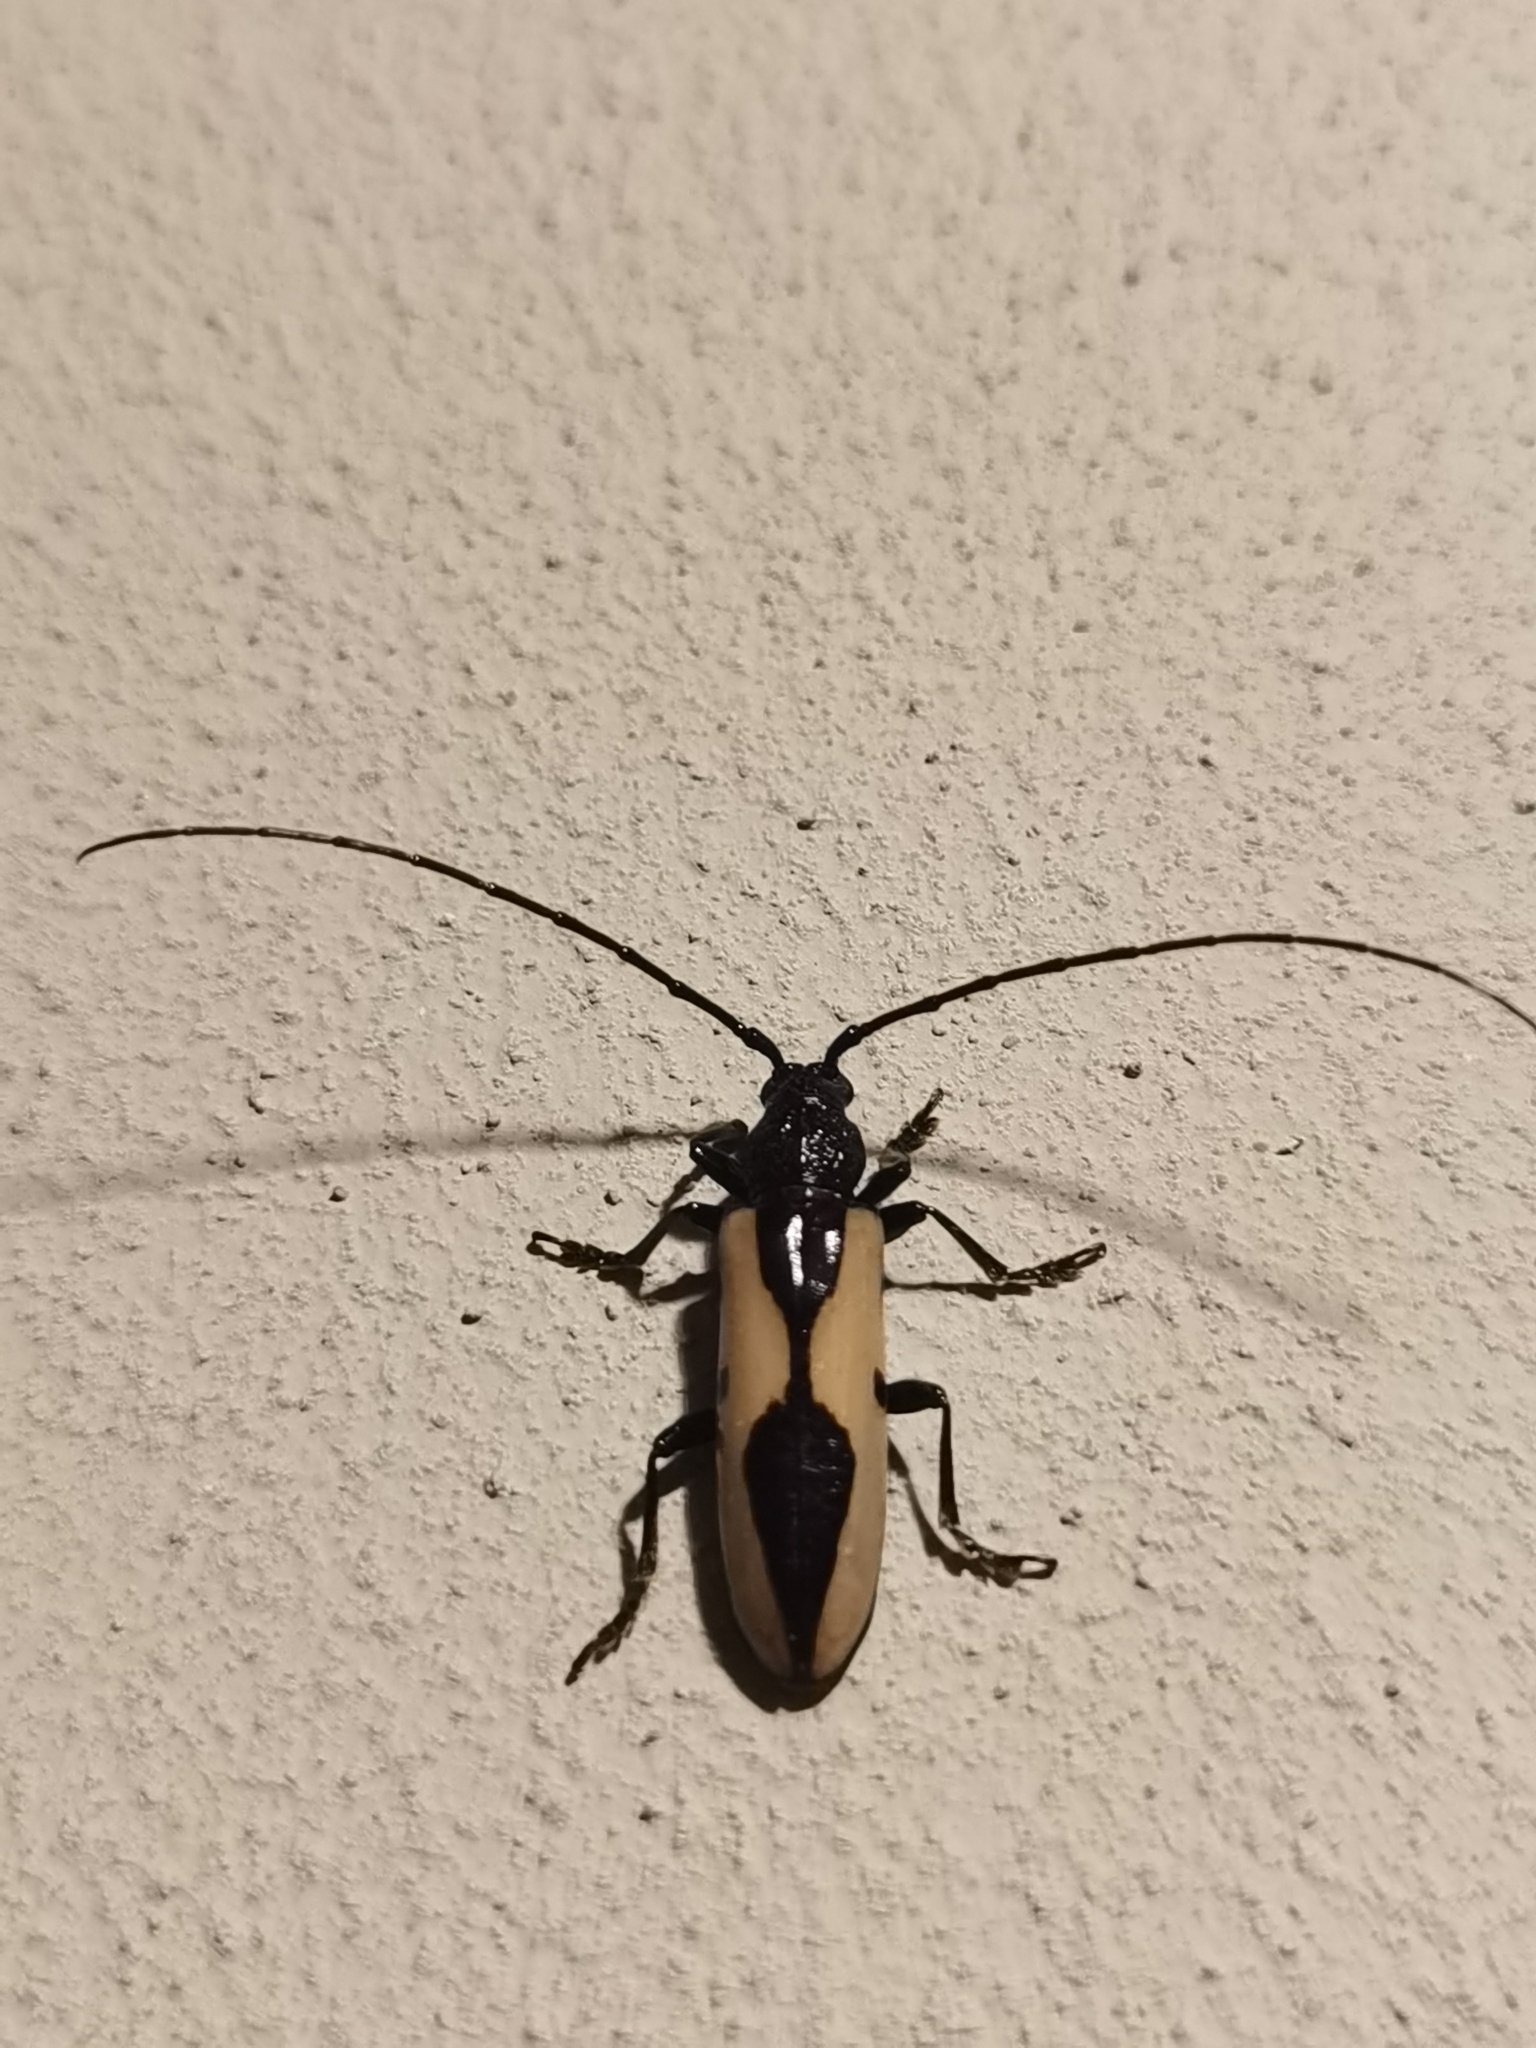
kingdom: Animalia
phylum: Arthropoda
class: Insecta
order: Coleoptera
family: Cerambycidae
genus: Poeciloxestia
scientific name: Poeciloxestia lanceolata
